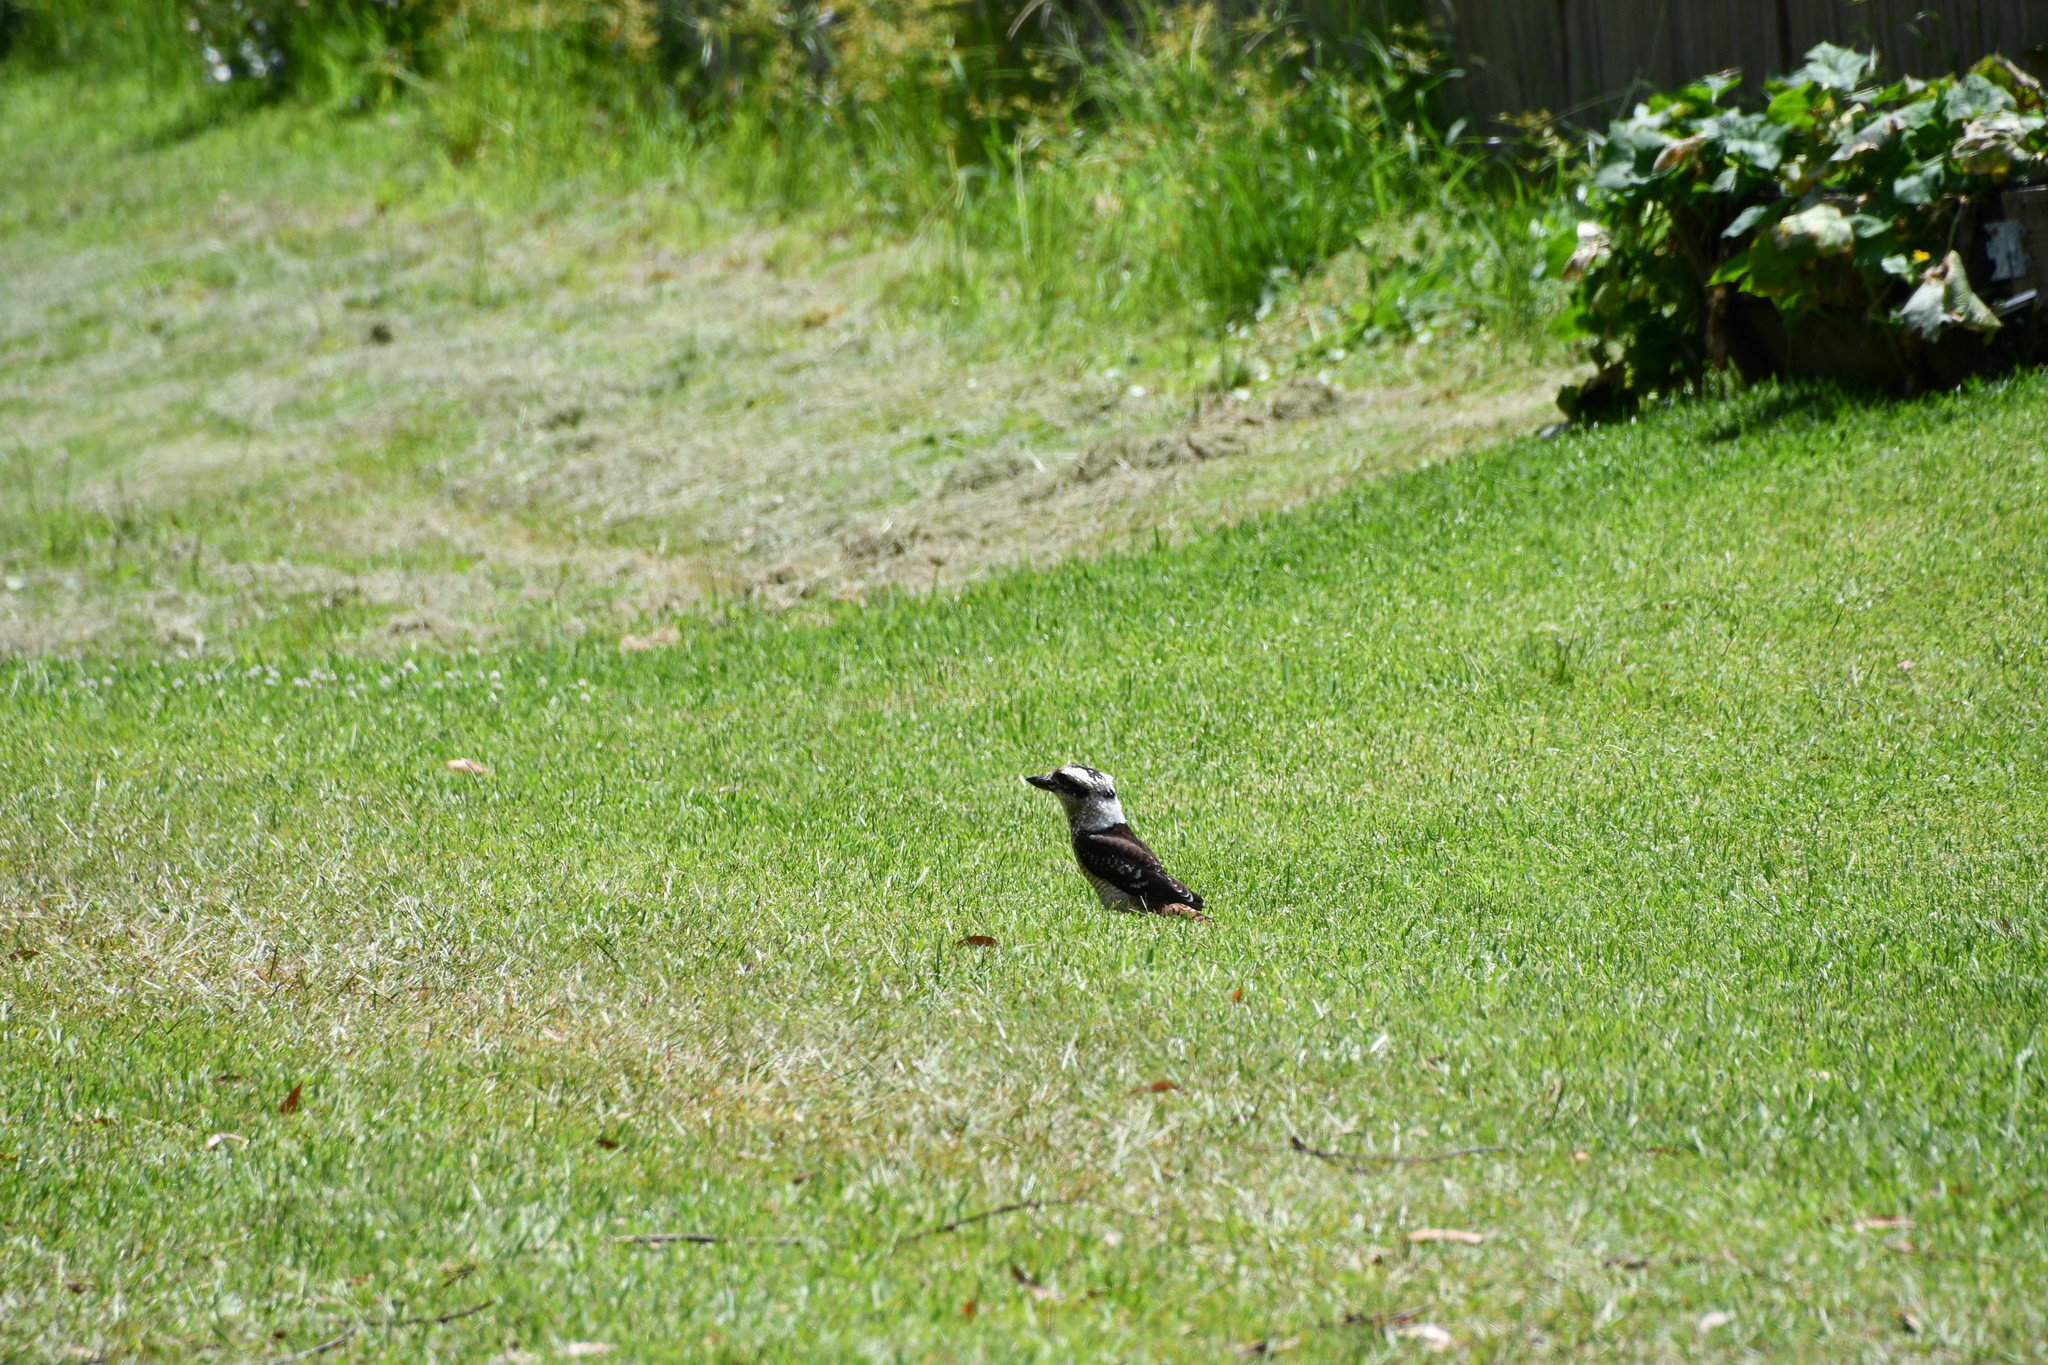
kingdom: Animalia
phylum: Chordata
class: Aves
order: Coraciiformes
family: Alcedinidae
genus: Dacelo
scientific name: Dacelo novaeguineae
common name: Laughing kookaburra
